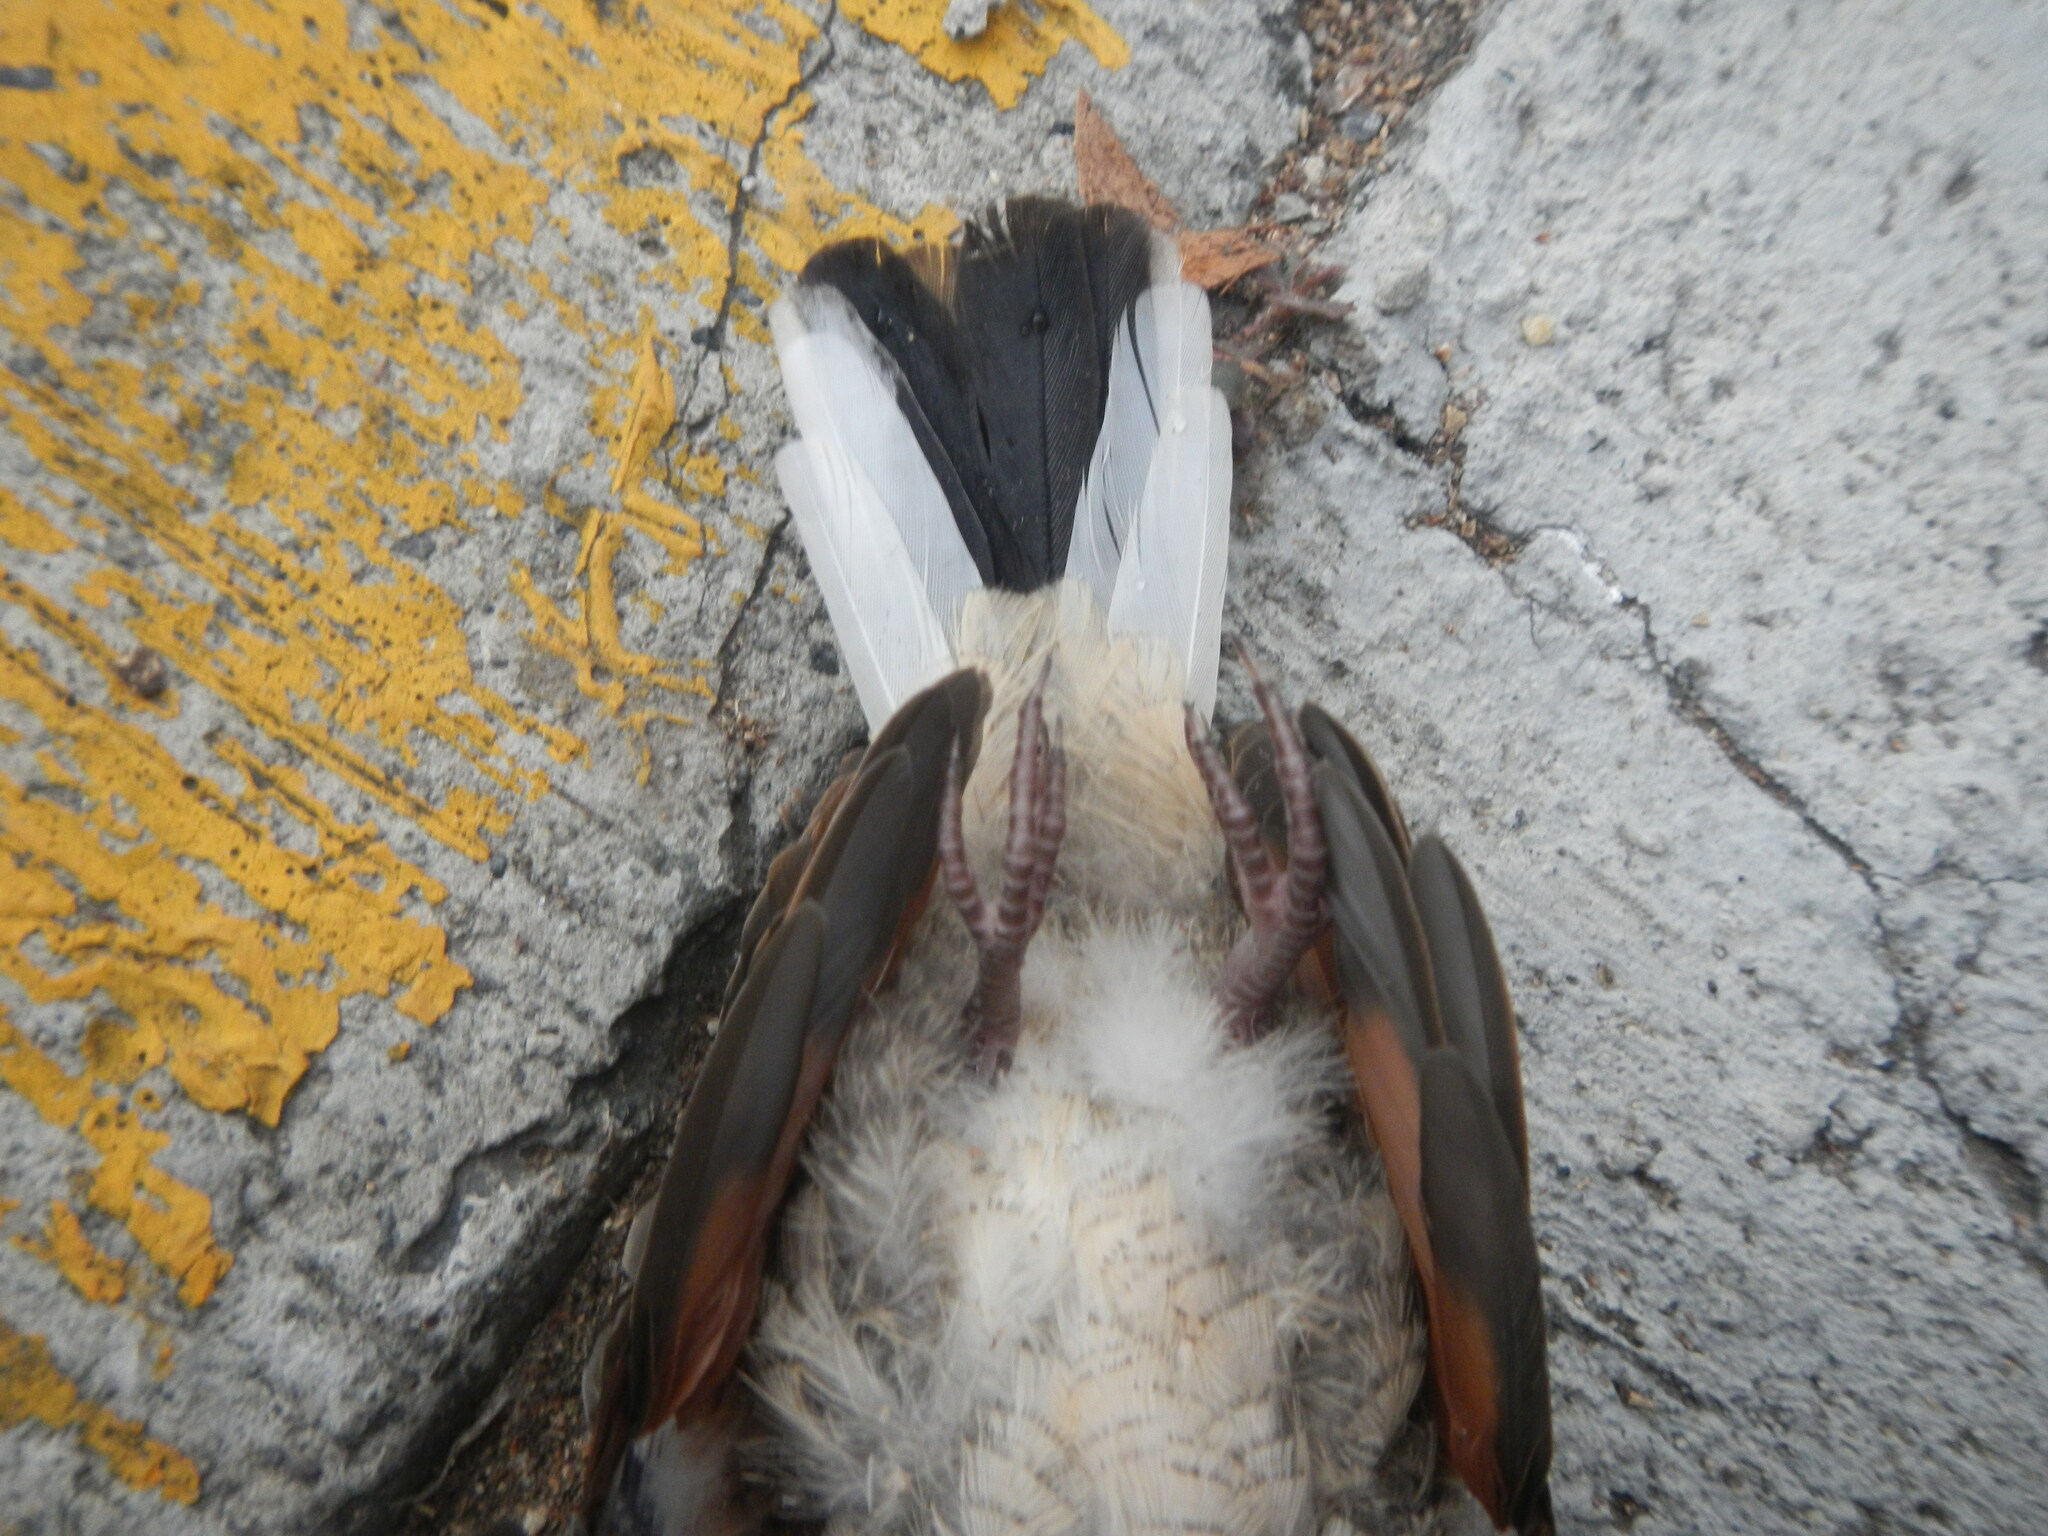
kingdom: Animalia
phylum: Chordata
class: Aves
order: Columbiformes
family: Columbidae
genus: Columbina
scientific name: Columbina inca
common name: Inca dove
